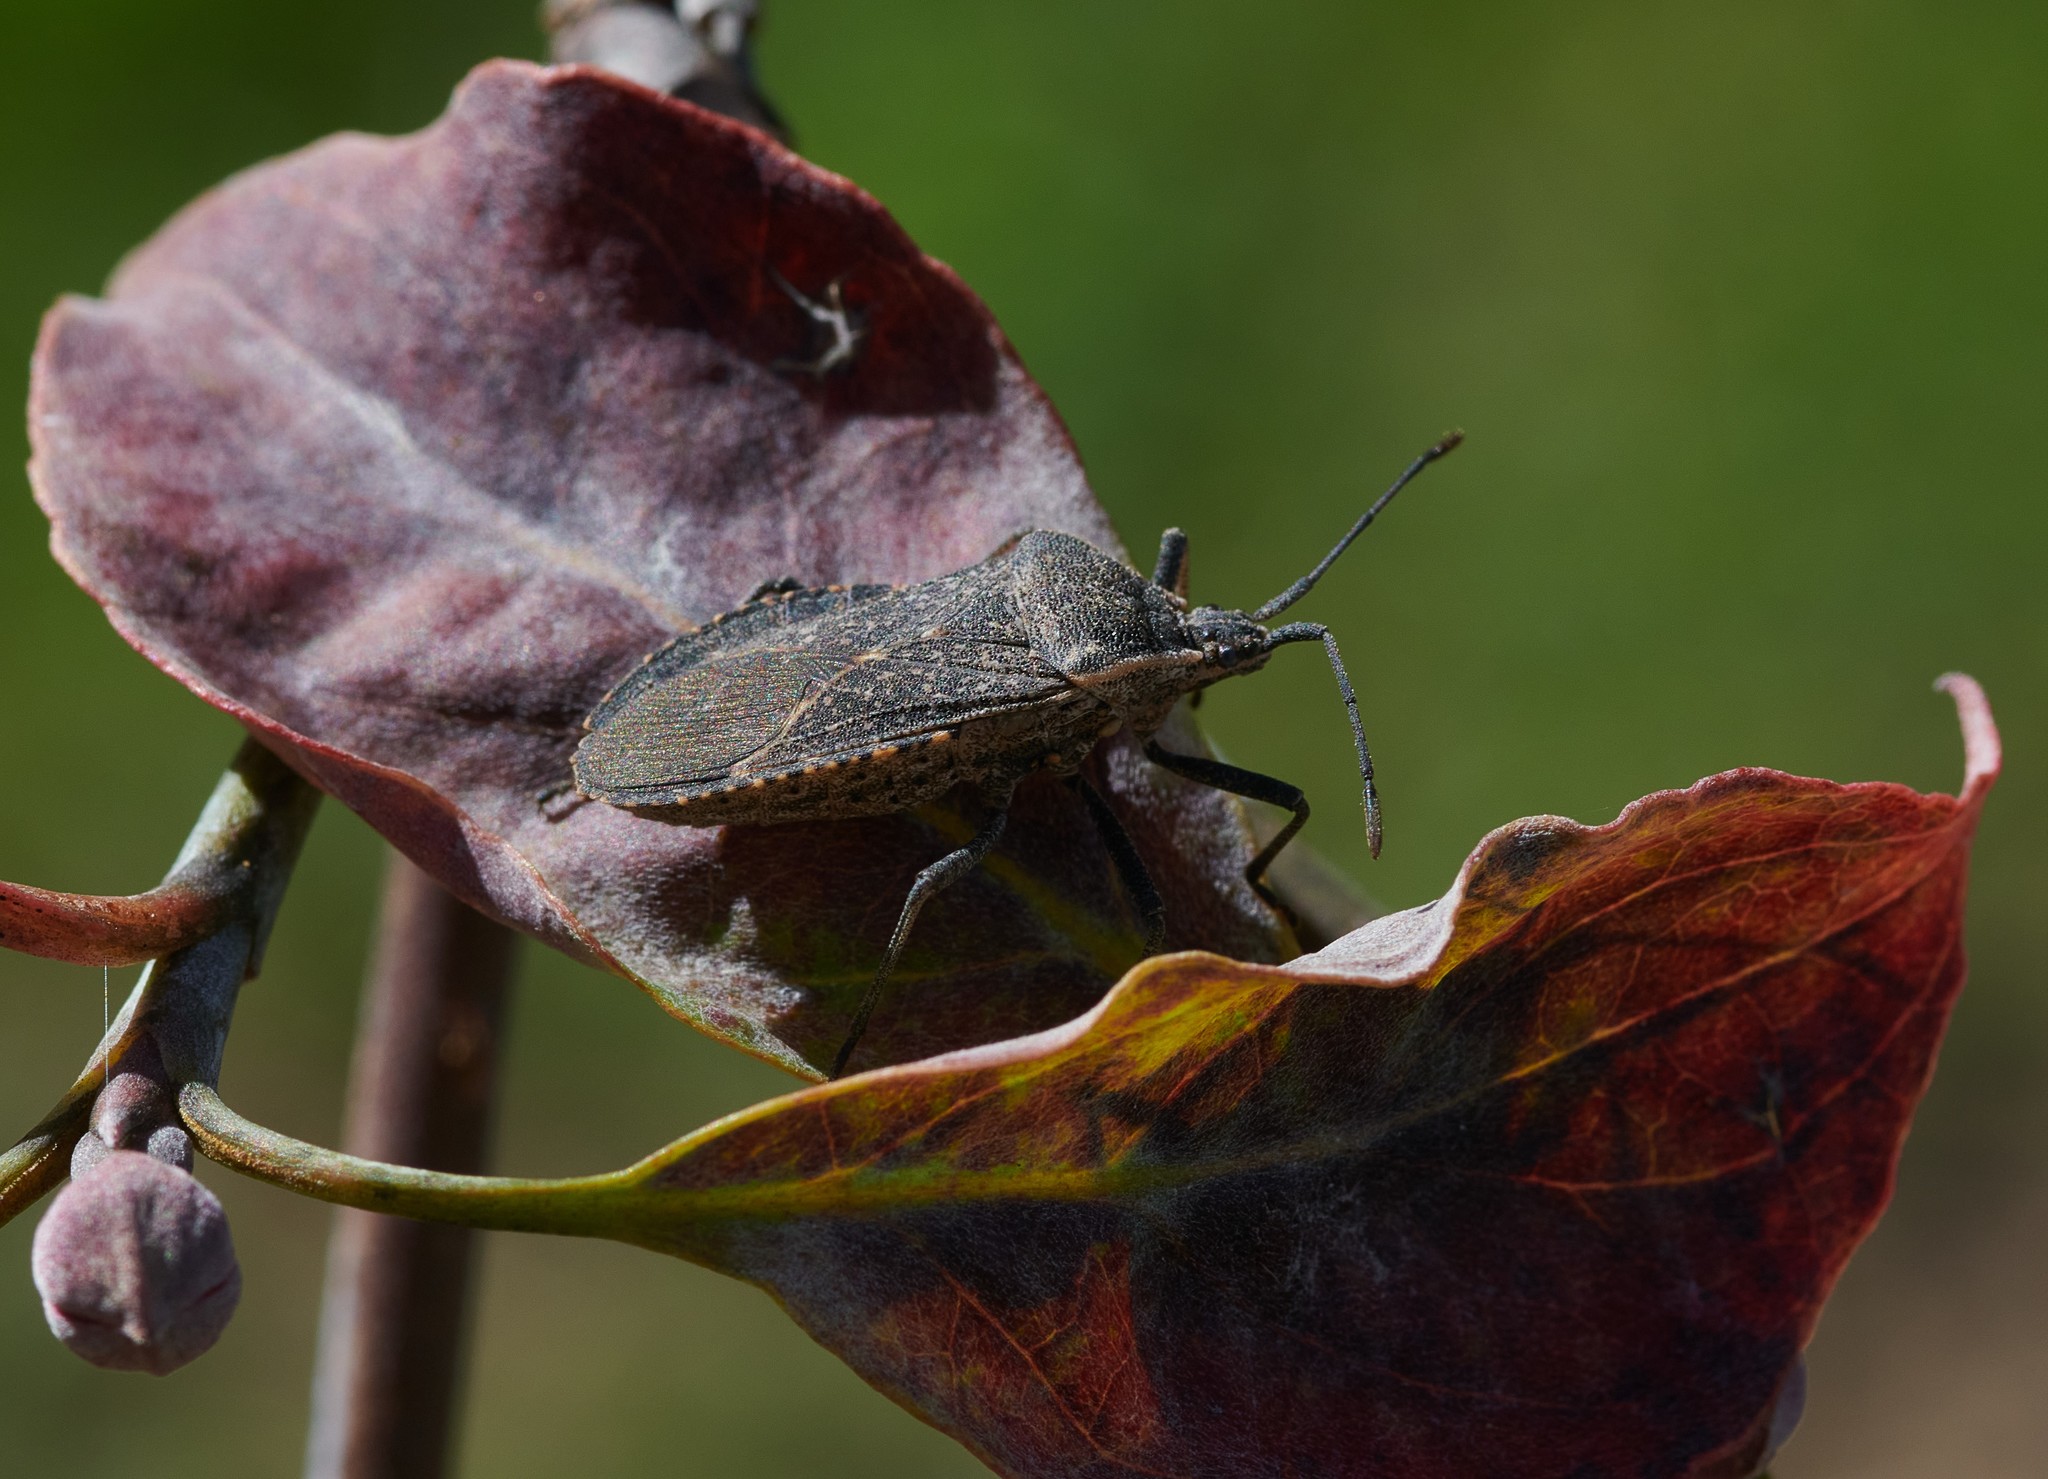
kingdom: Animalia
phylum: Arthropoda
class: Insecta
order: Hemiptera
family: Coreidae
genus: Anasa
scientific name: Anasa tristis
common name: Squash bug
